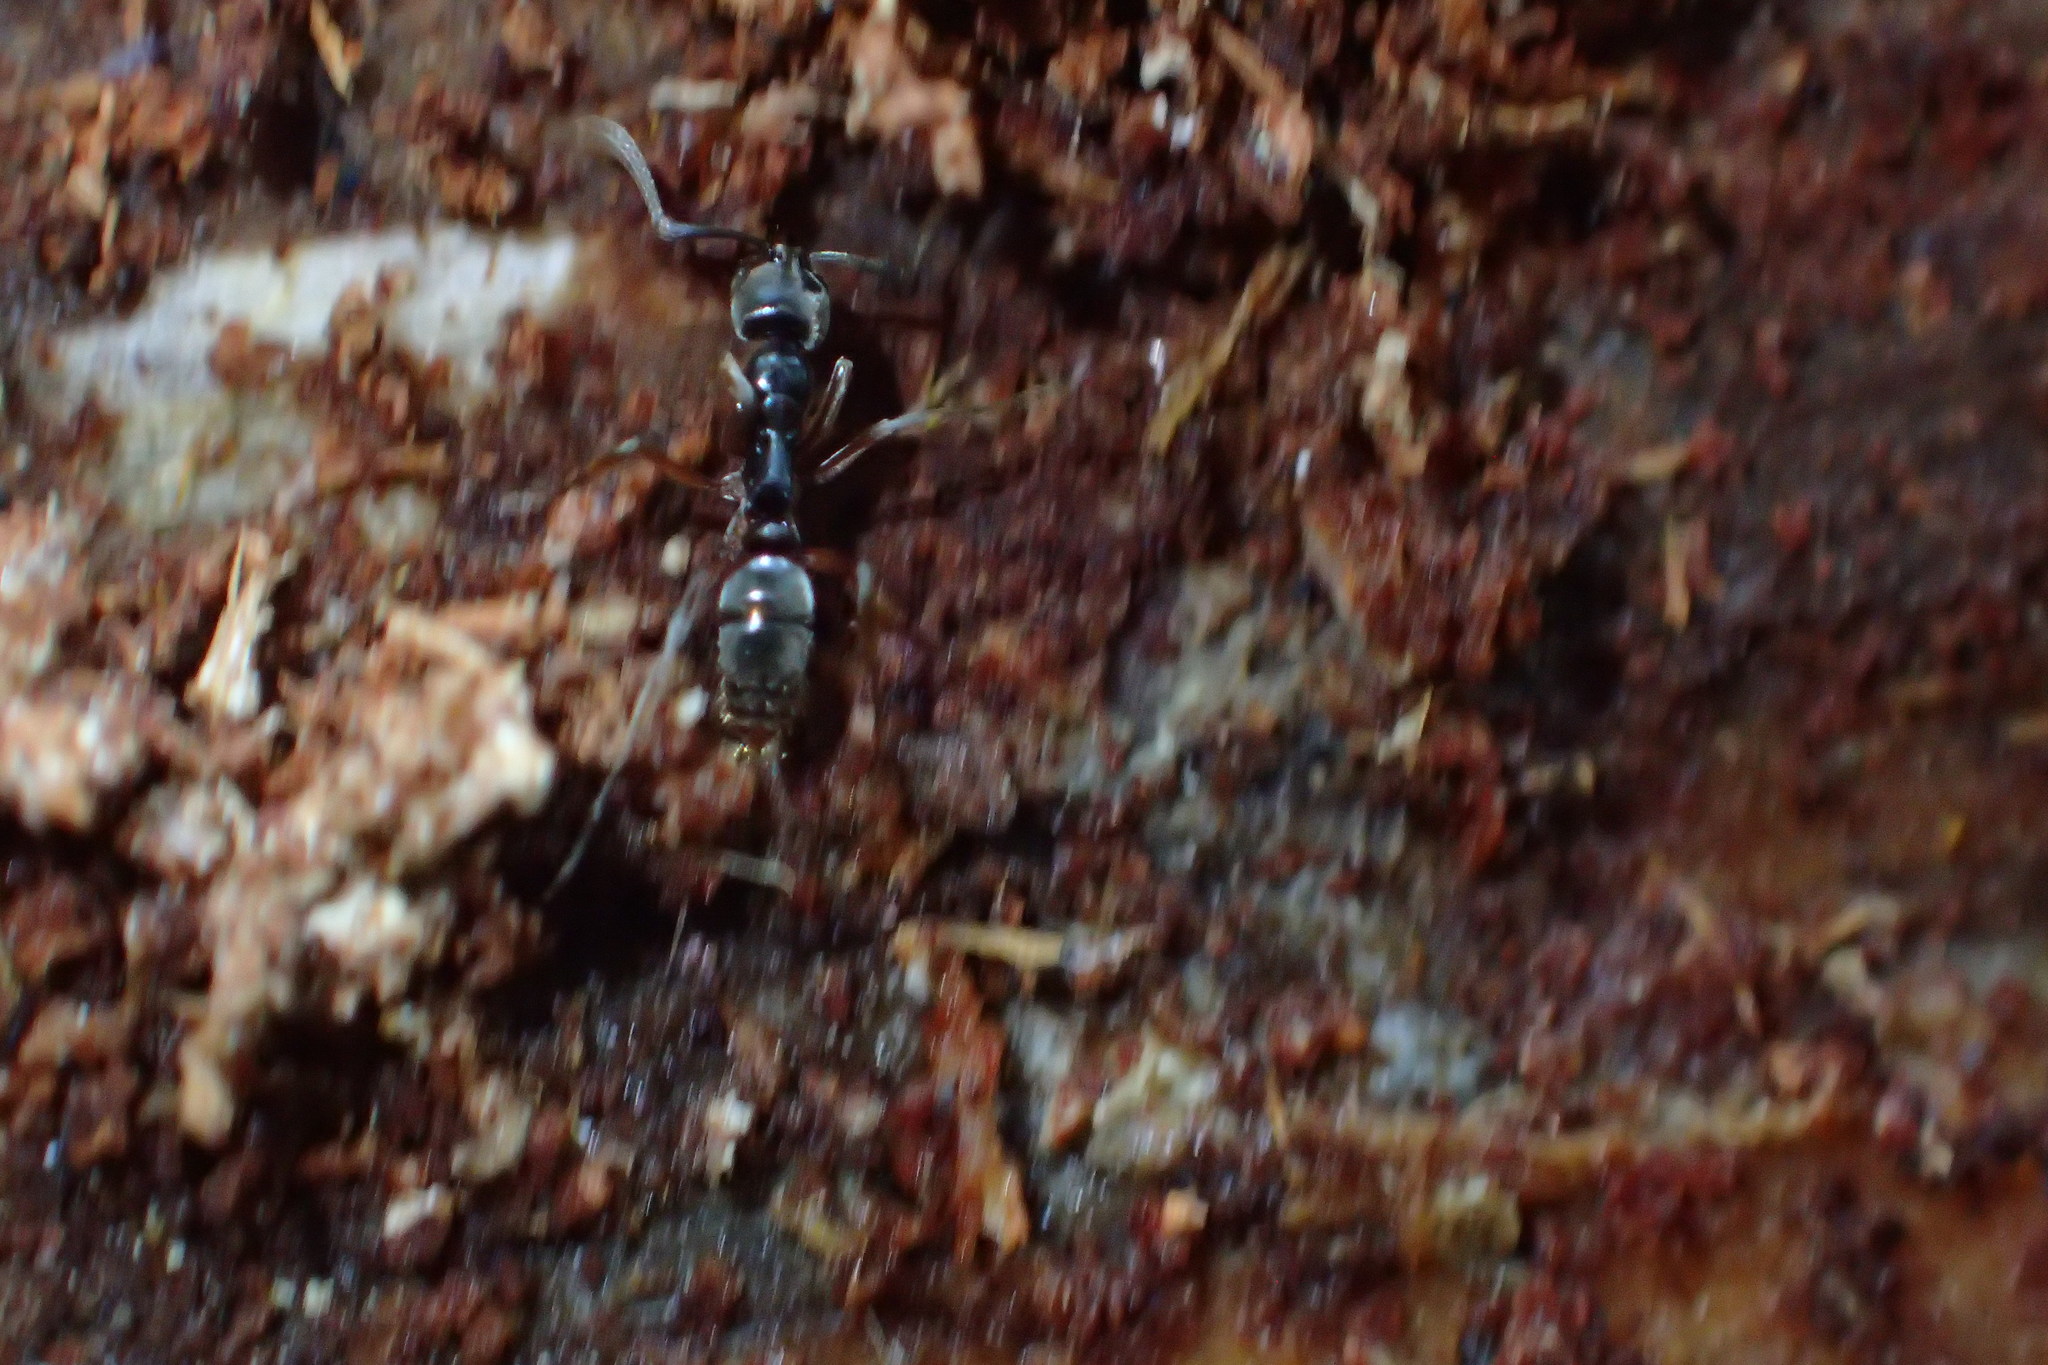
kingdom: Animalia
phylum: Arthropoda
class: Insecta
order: Hymenoptera
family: Formicidae
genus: Pachycondyla
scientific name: Pachycondyla chinensis
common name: Asian needle ant
